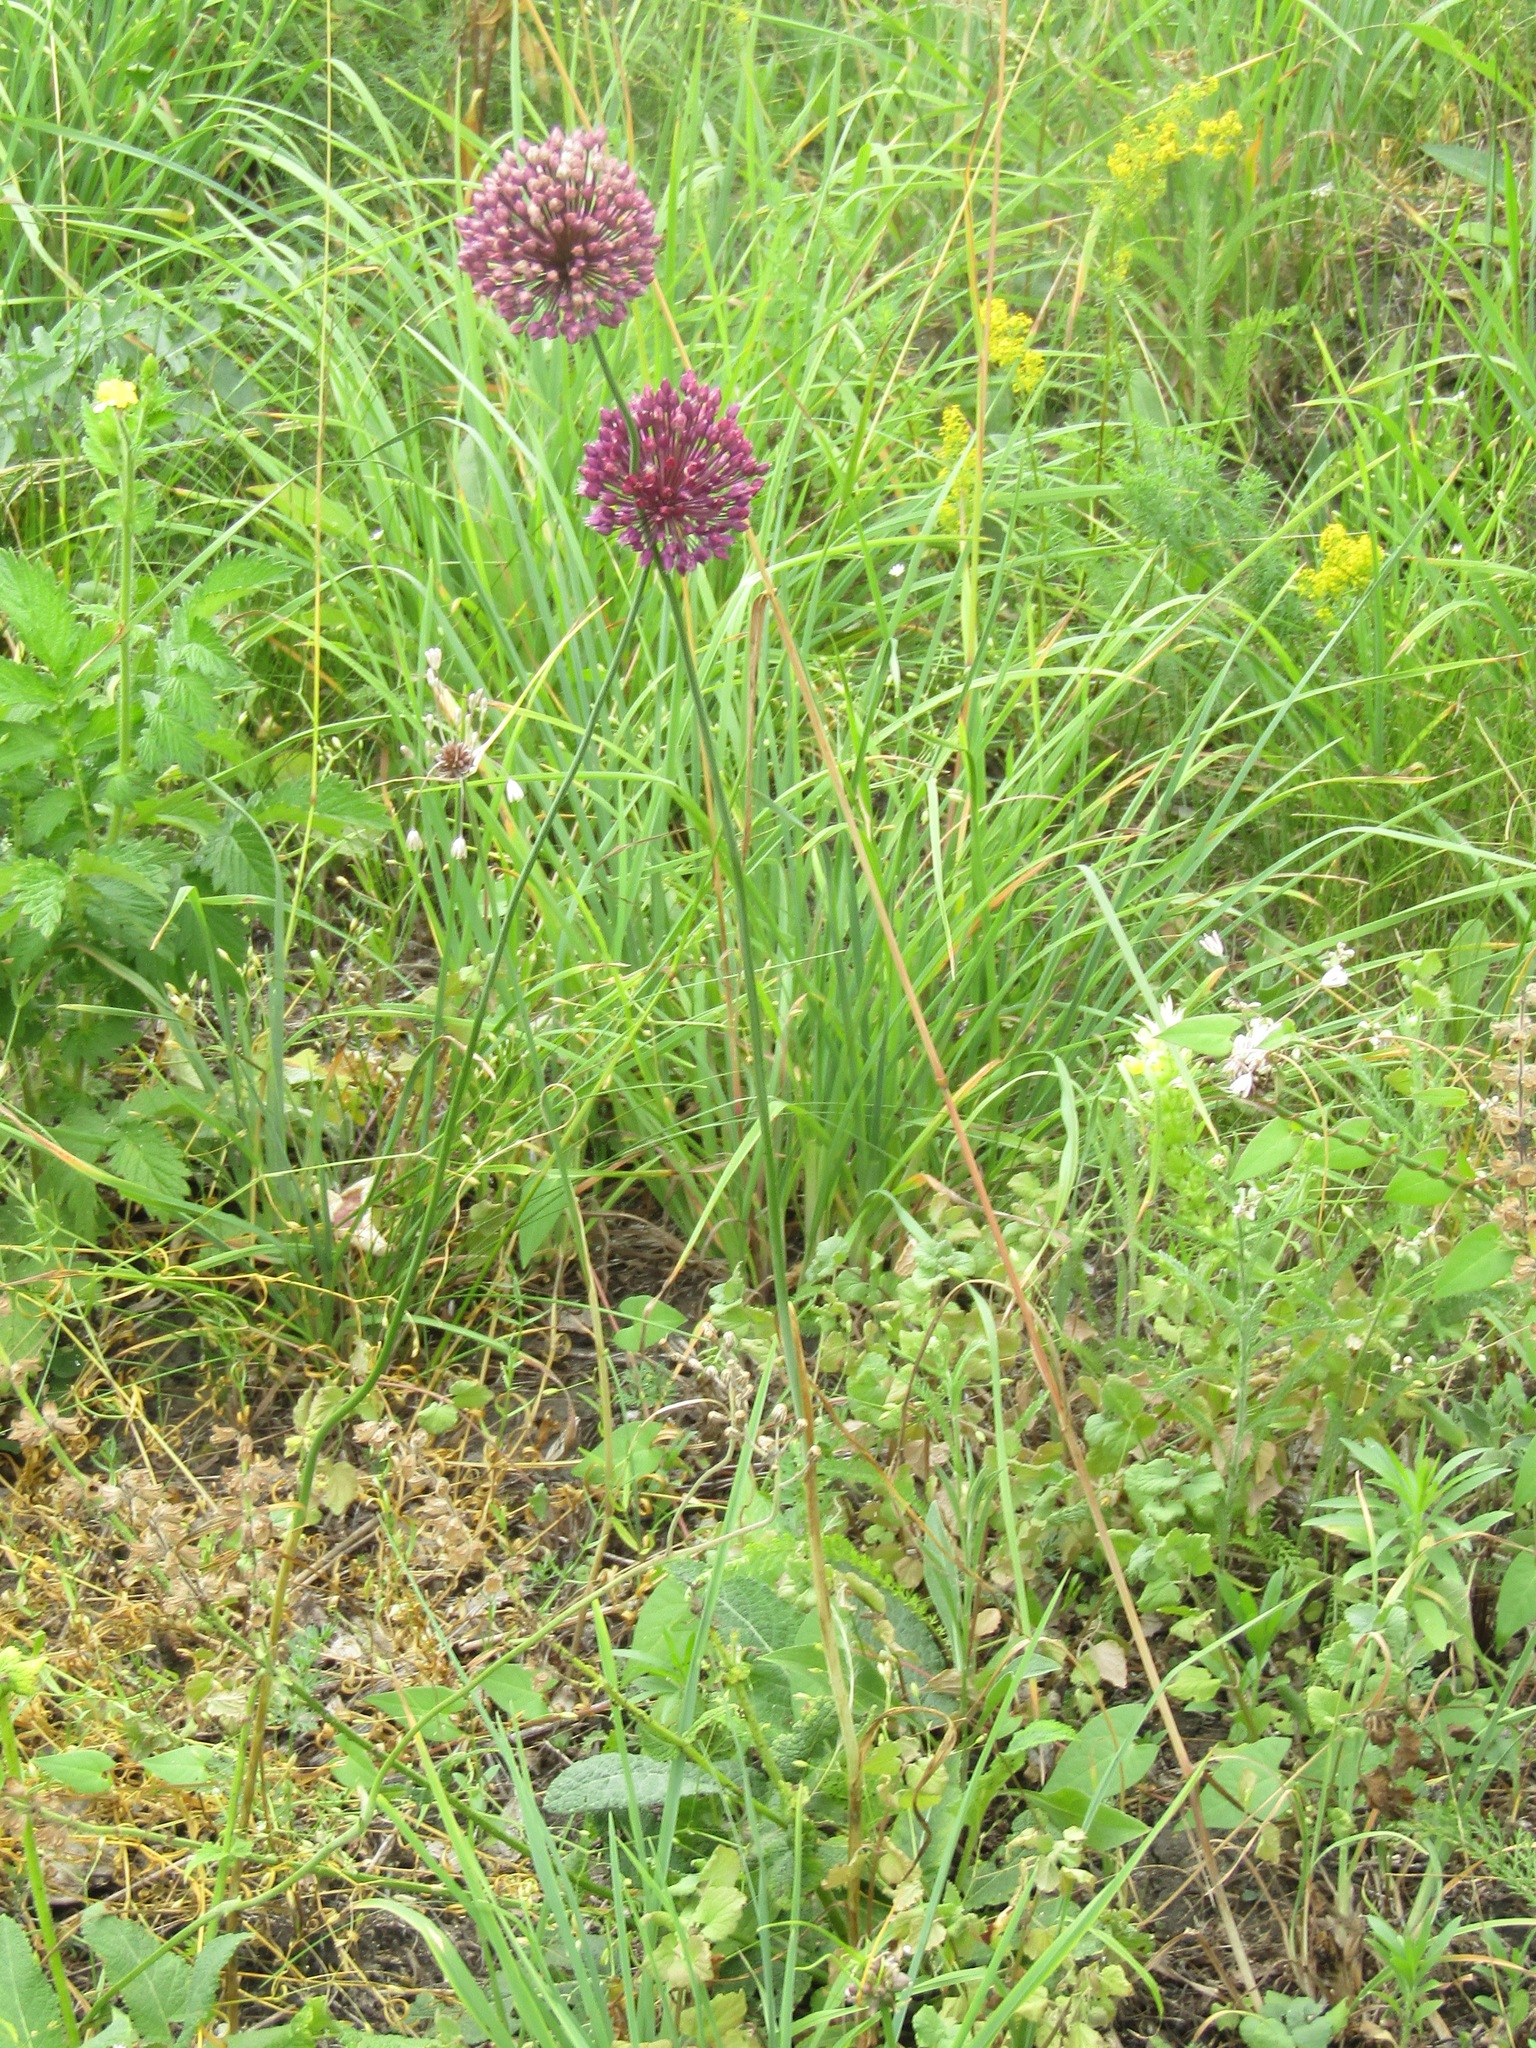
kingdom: Plantae
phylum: Tracheophyta
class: Liliopsida
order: Asparagales
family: Amaryllidaceae
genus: Allium
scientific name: Allium sphaerocephalon
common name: Round-headed leek
